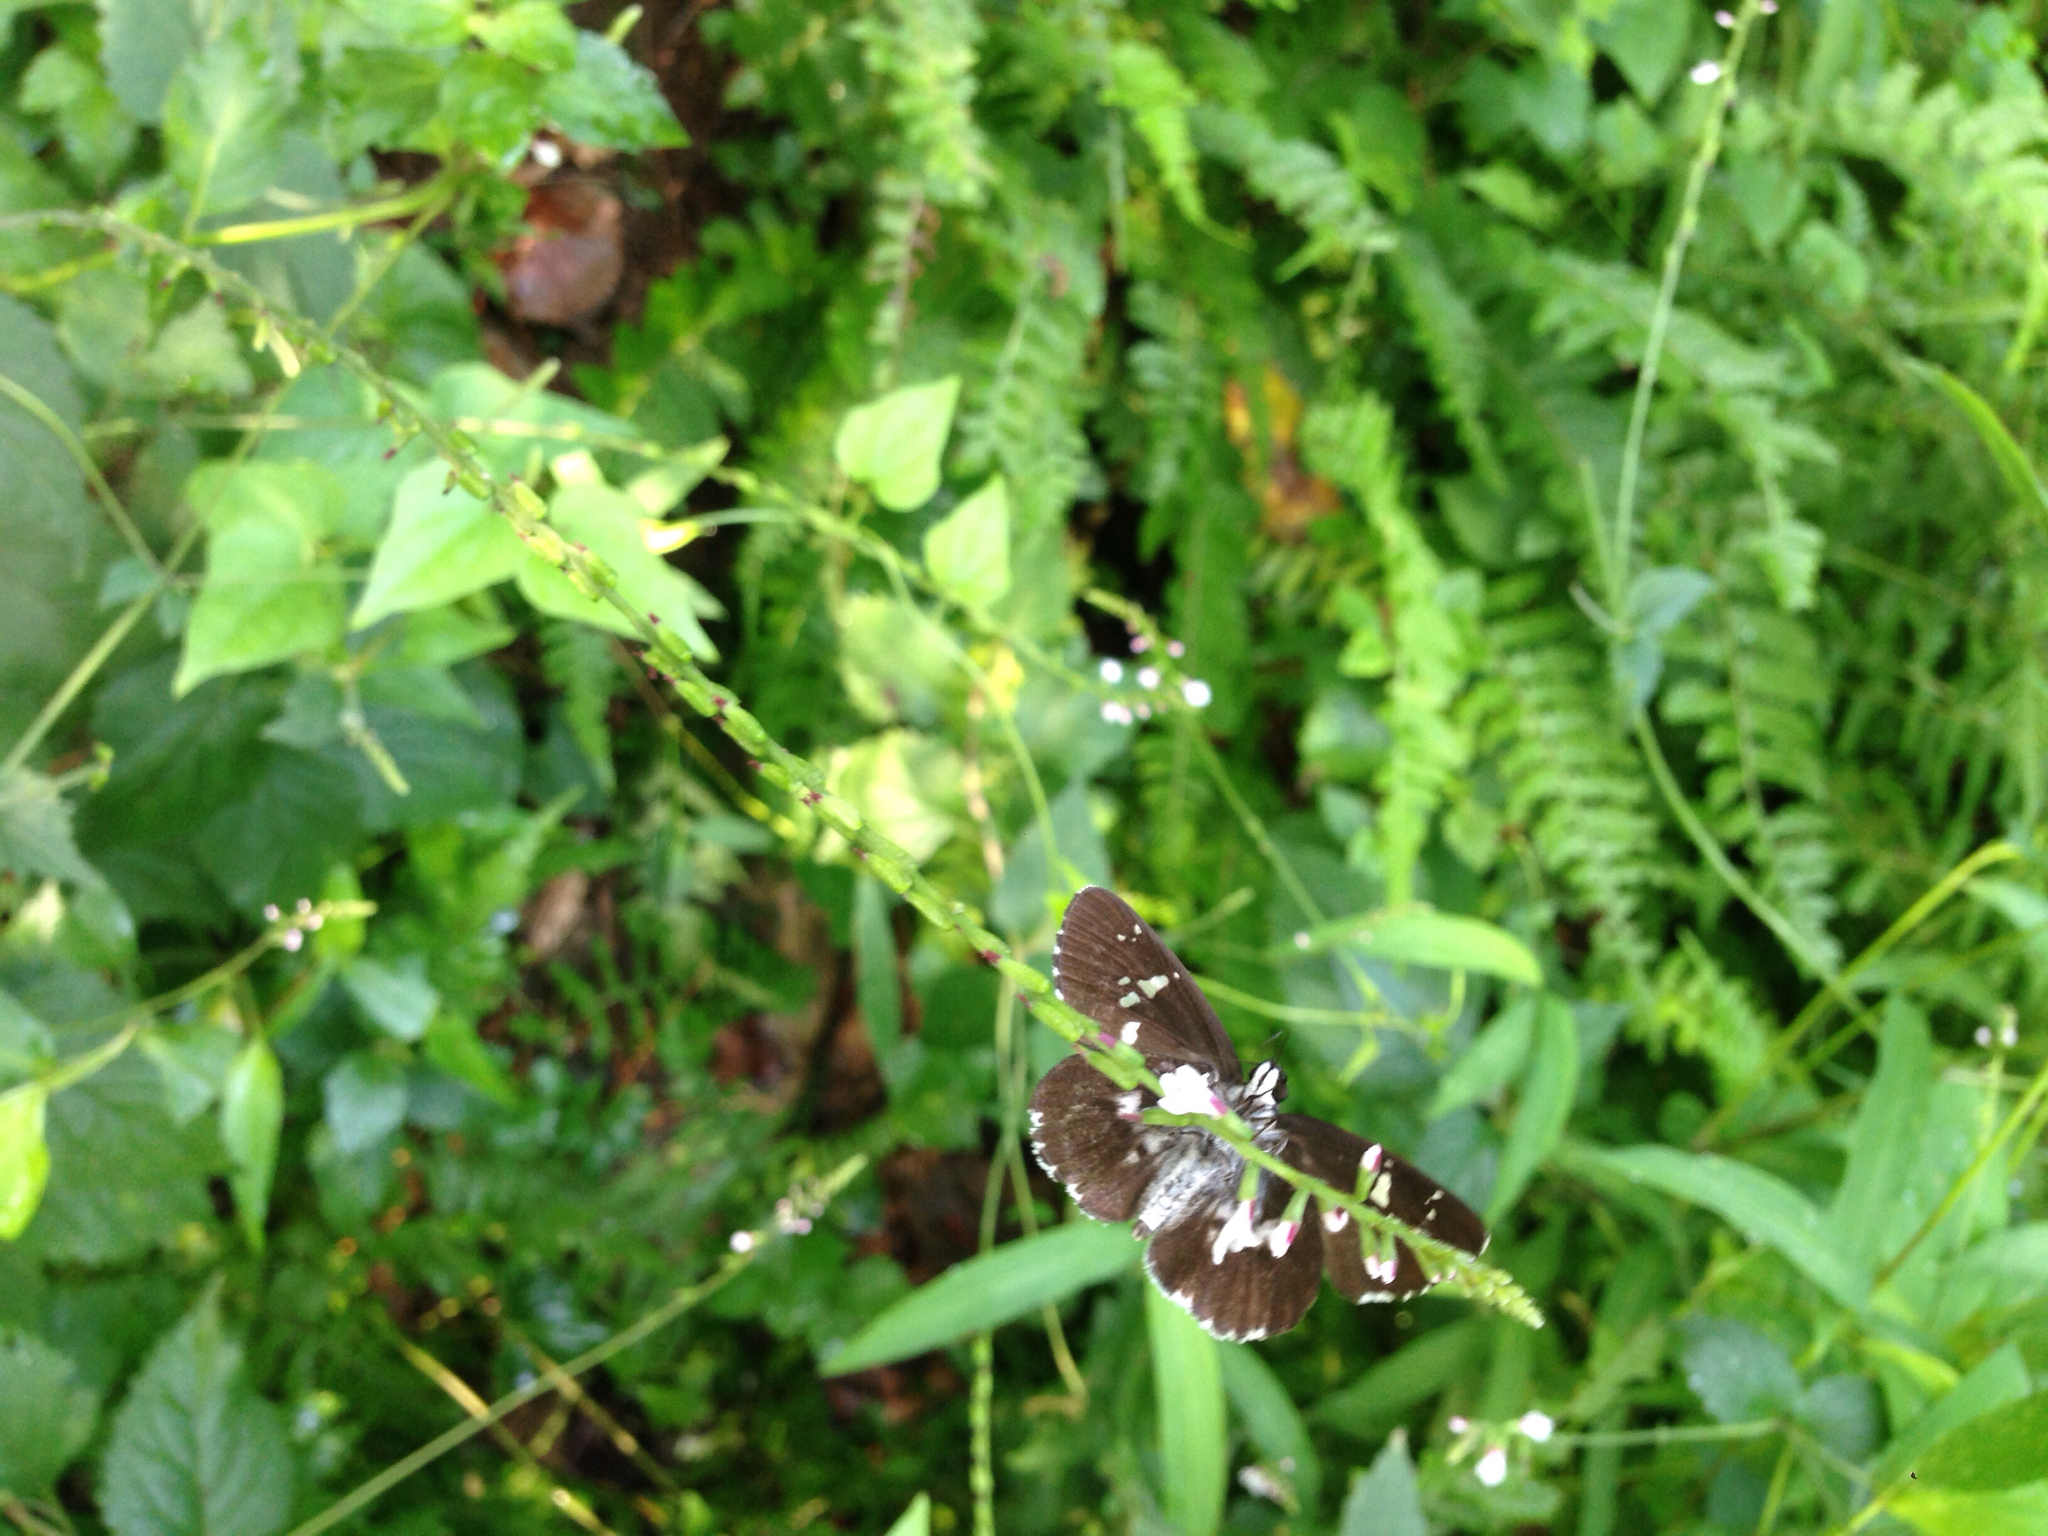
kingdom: Animalia
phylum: Arthropoda
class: Insecta
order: Lepidoptera
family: Hesperiidae
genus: Daimio
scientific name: Daimio tethys
